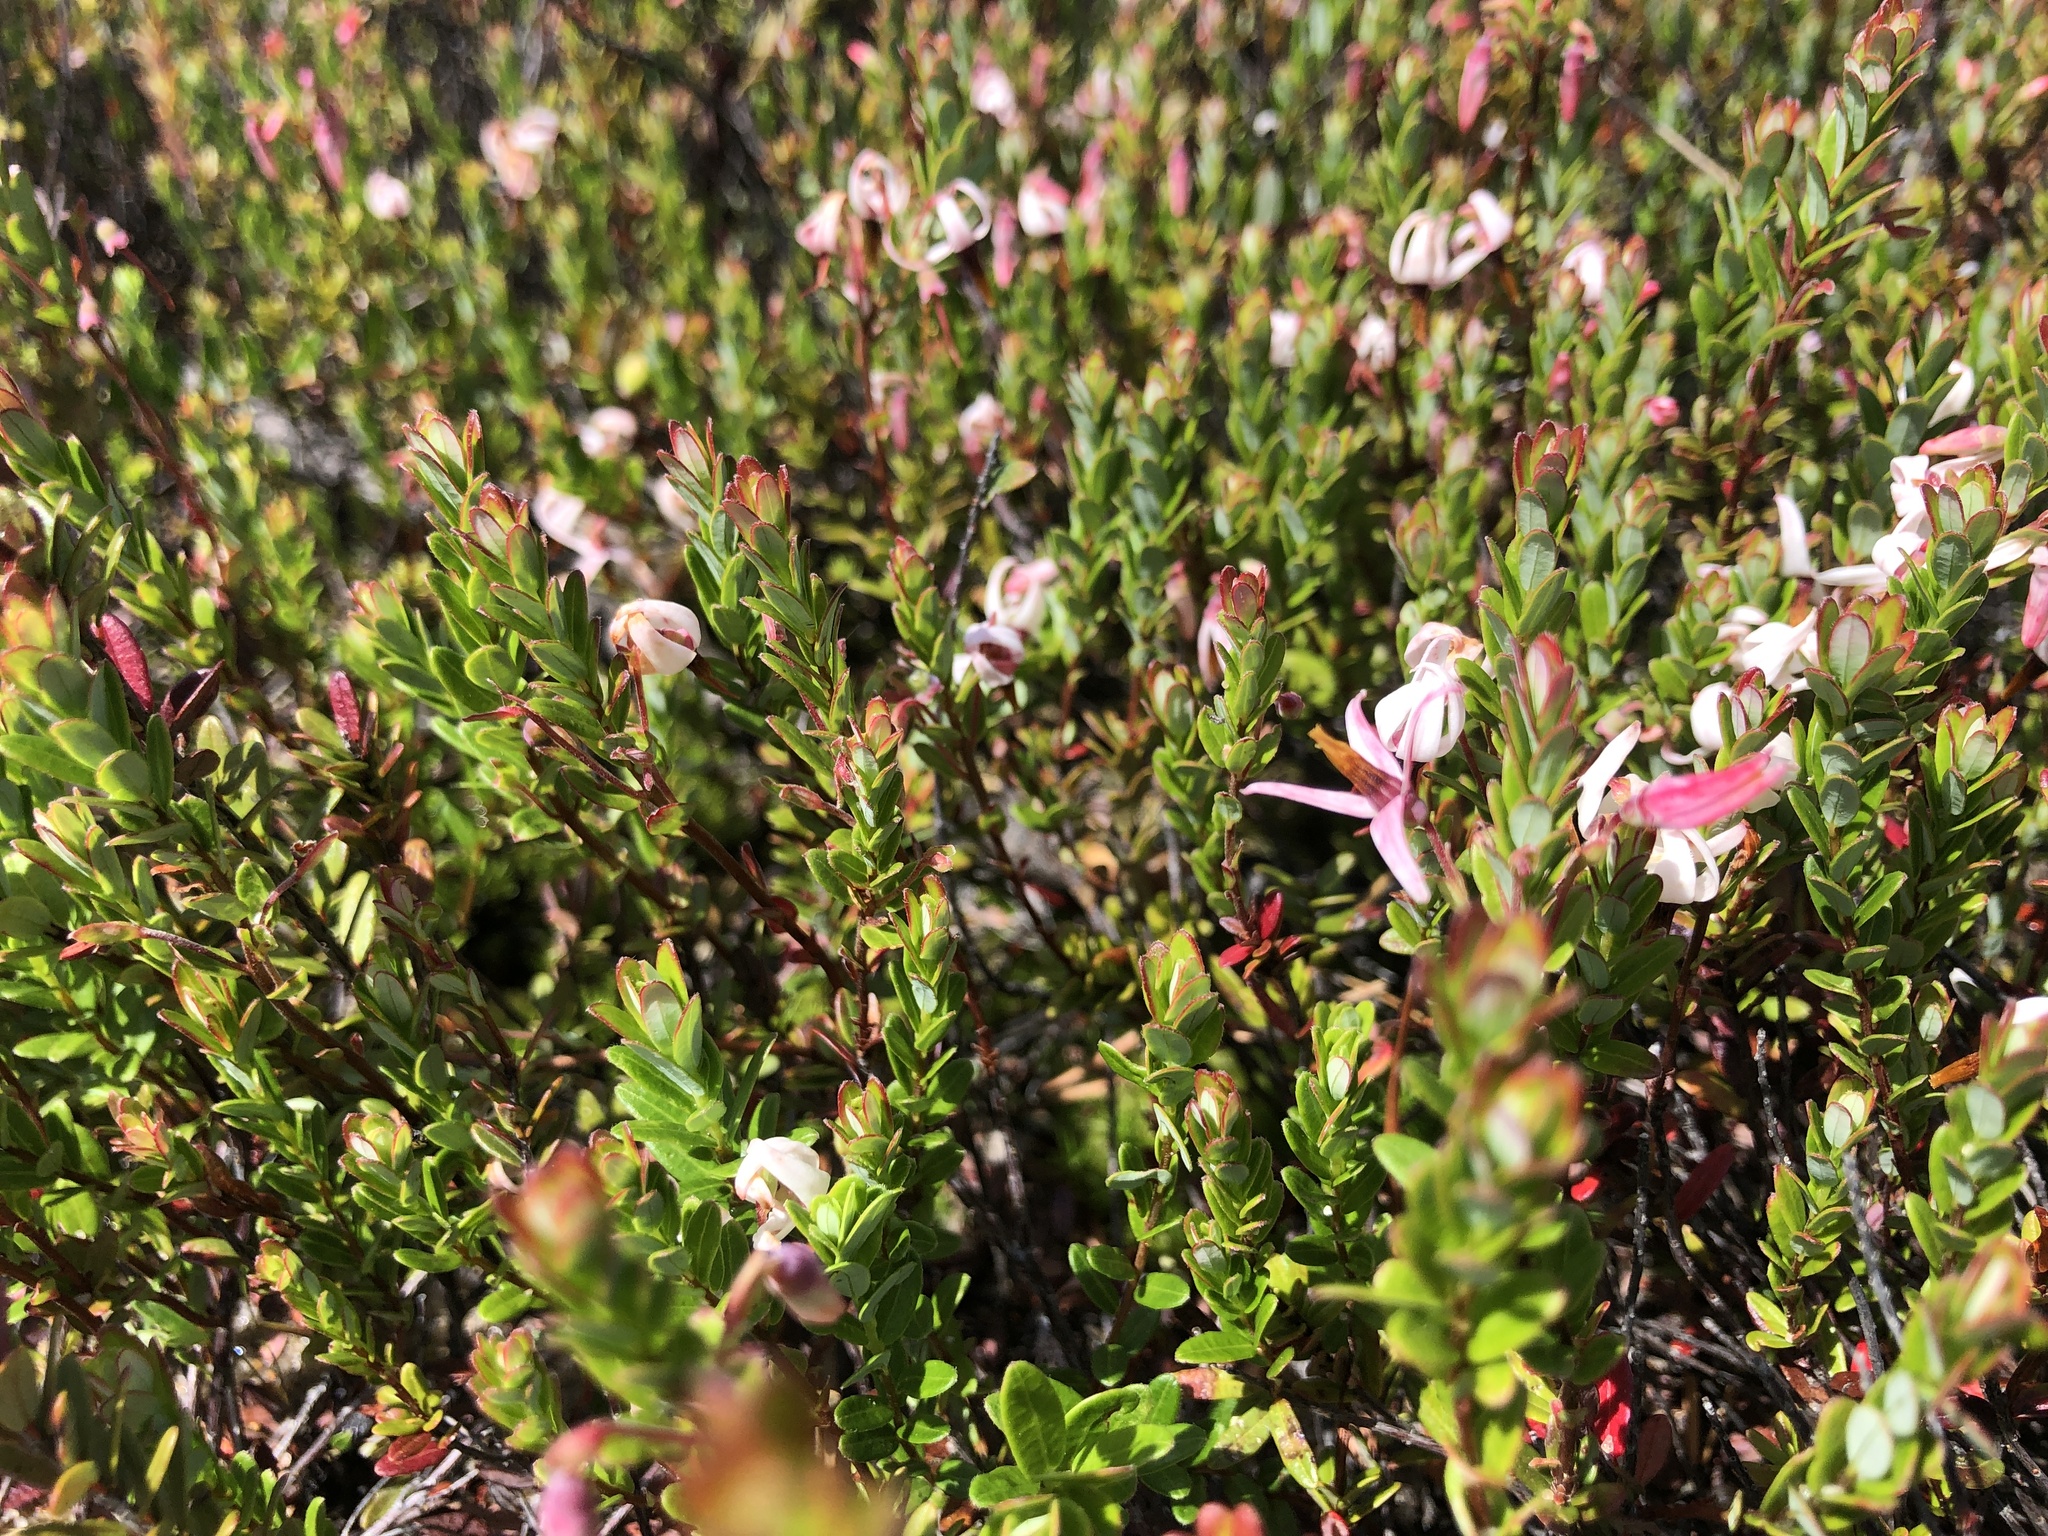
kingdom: Plantae
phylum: Tracheophyta
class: Magnoliopsida
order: Ericales
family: Ericaceae
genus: Vaccinium
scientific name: Vaccinium macrocarpon
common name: American cranberry
